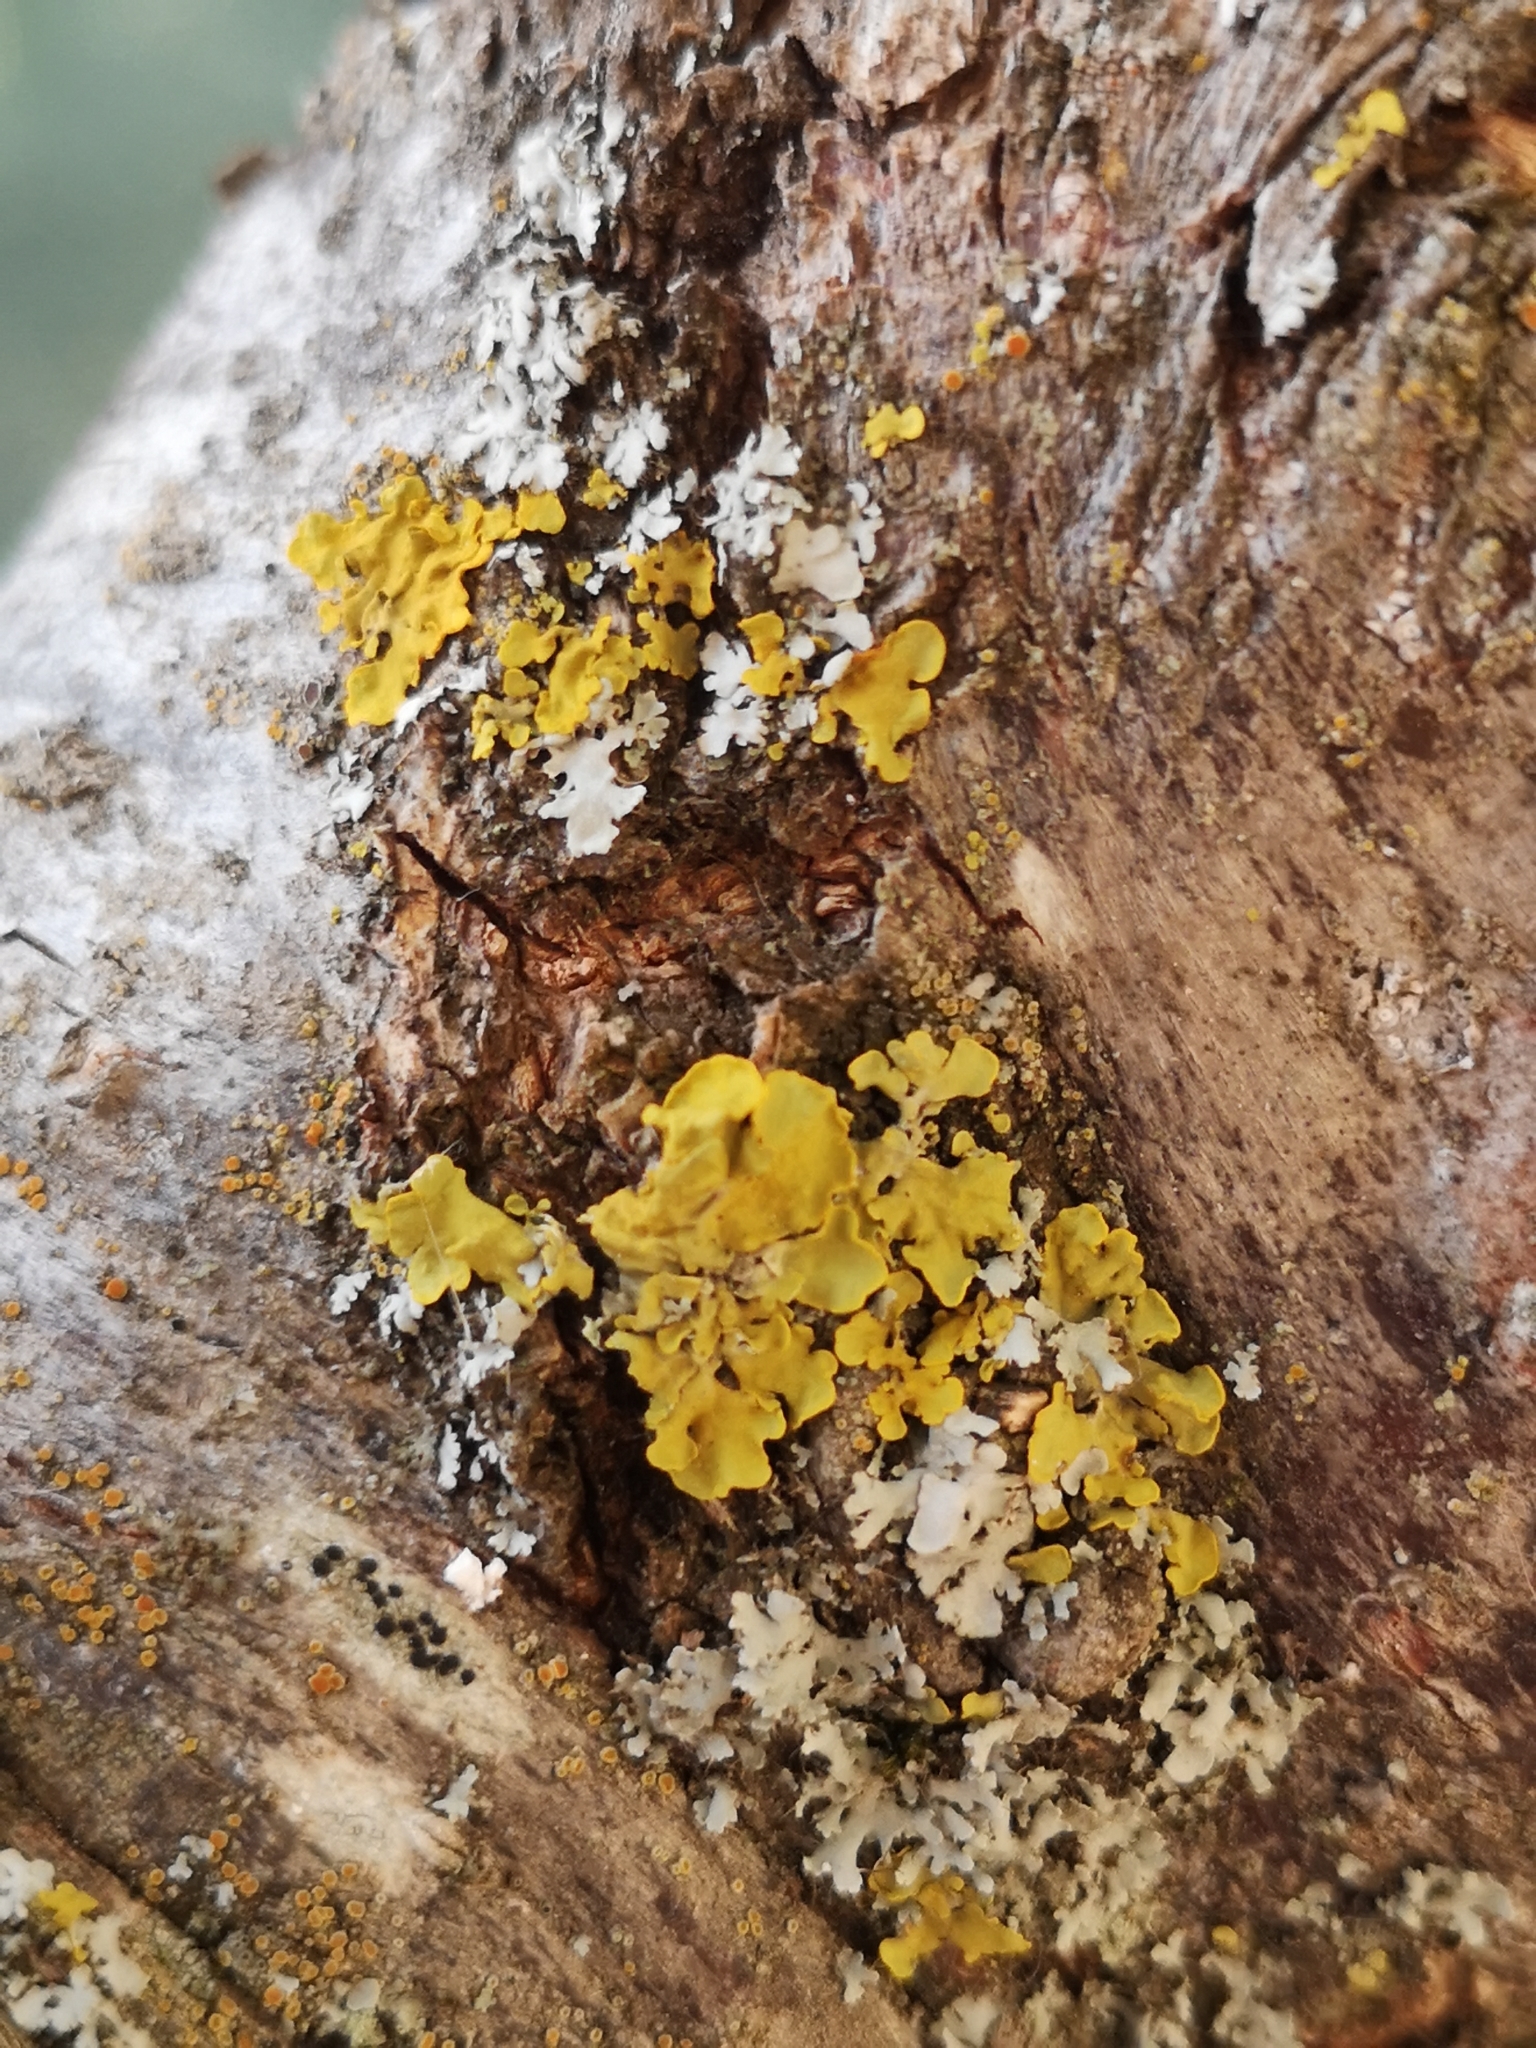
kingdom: Fungi
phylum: Ascomycota
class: Lecanoromycetes
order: Teloschistales
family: Teloschistaceae
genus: Xanthoria
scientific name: Xanthoria parietina
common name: Common orange lichen
